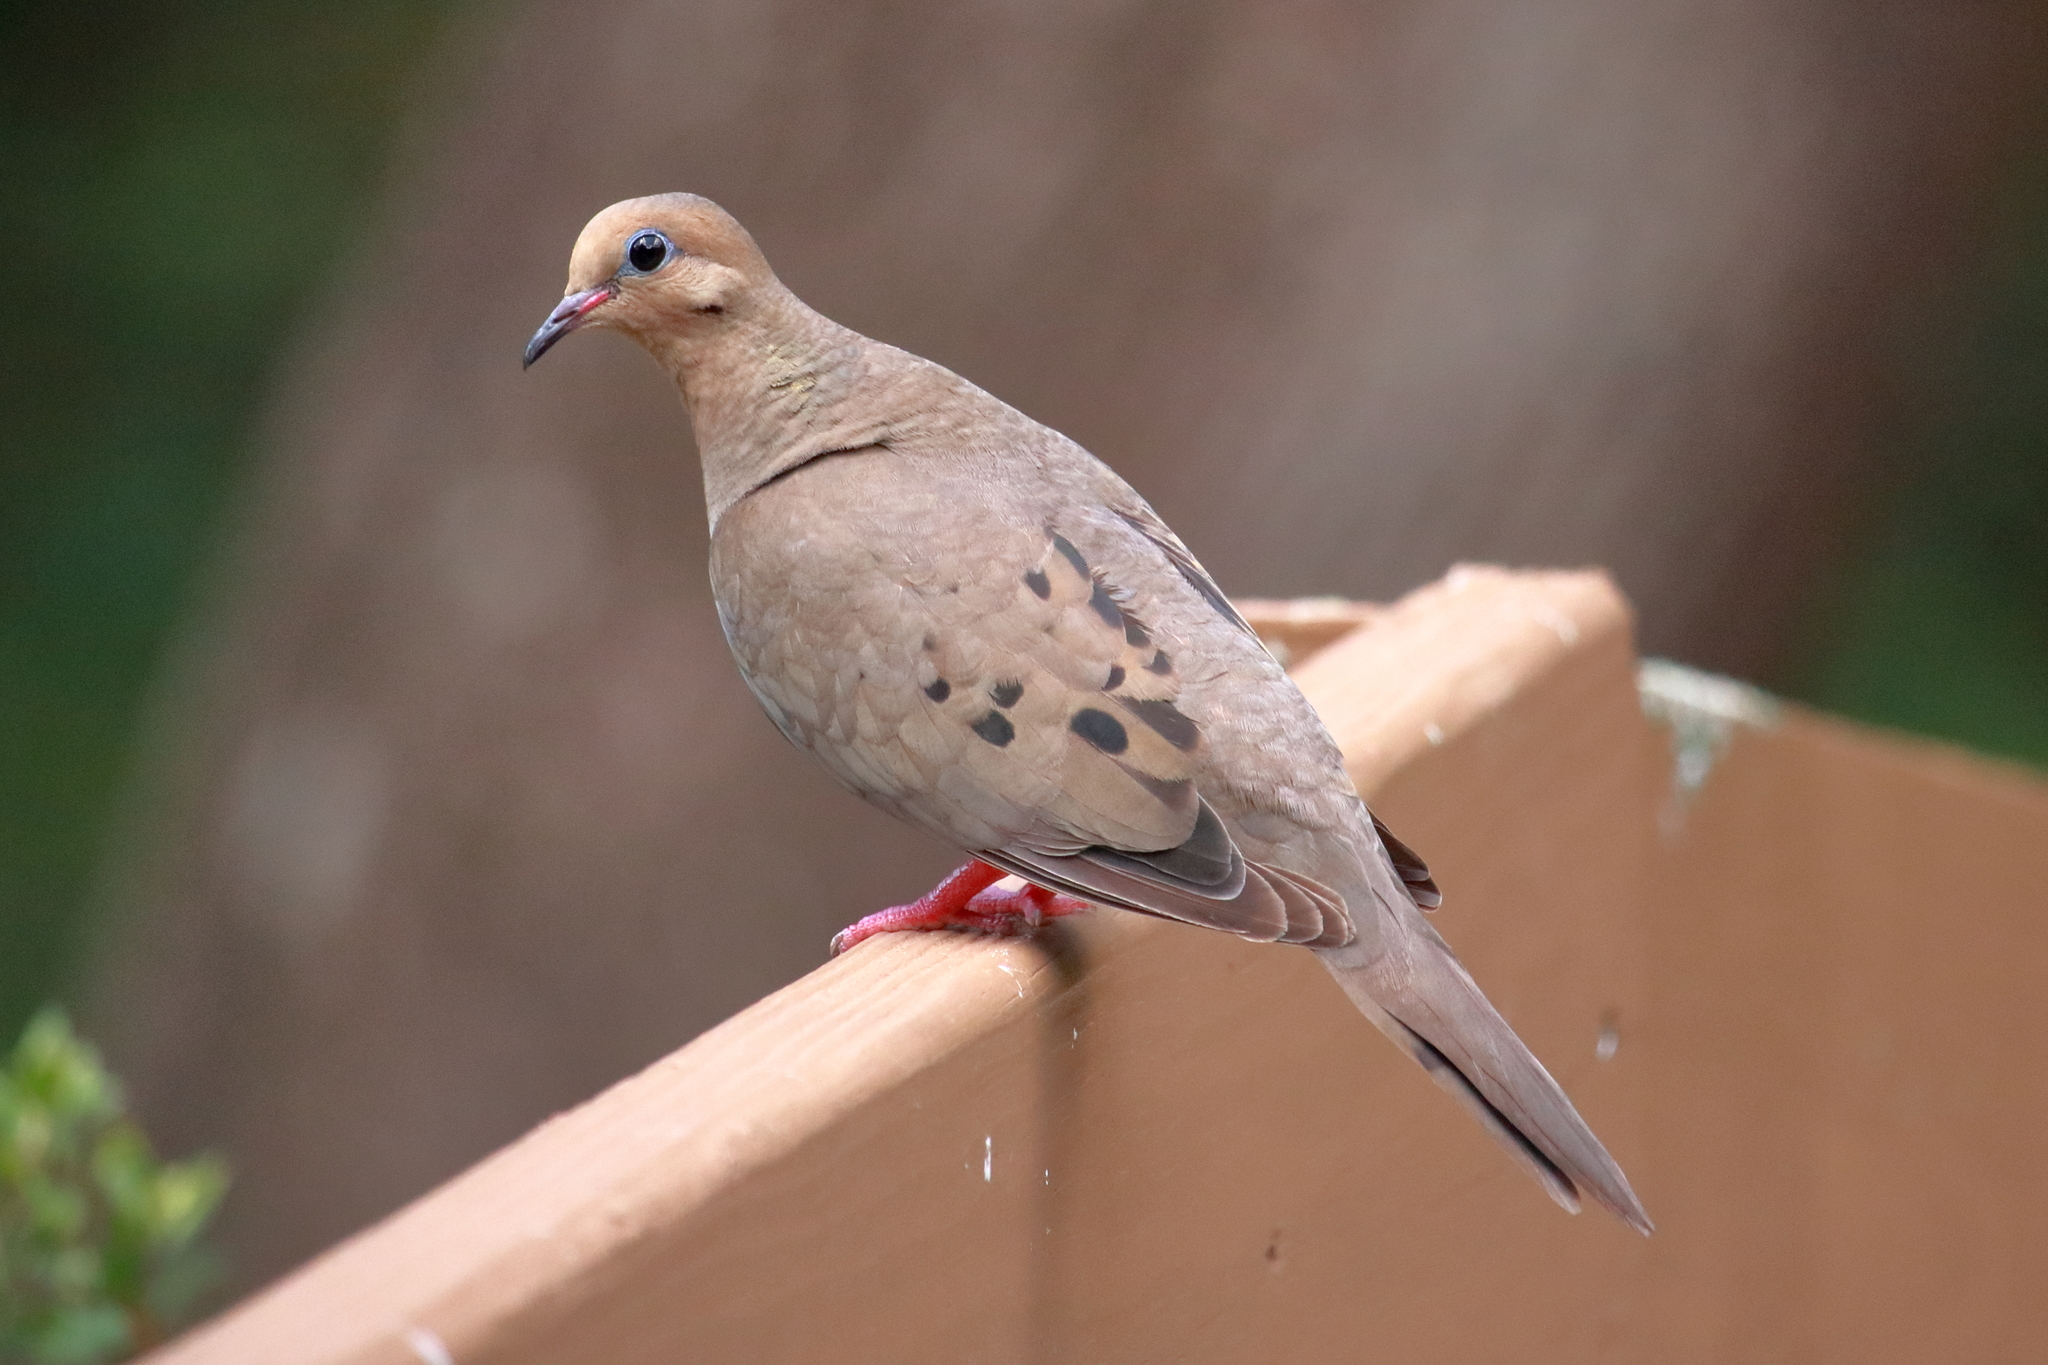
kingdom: Animalia
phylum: Chordata
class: Aves
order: Columbiformes
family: Columbidae
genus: Zenaida
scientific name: Zenaida macroura
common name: Mourning dove
